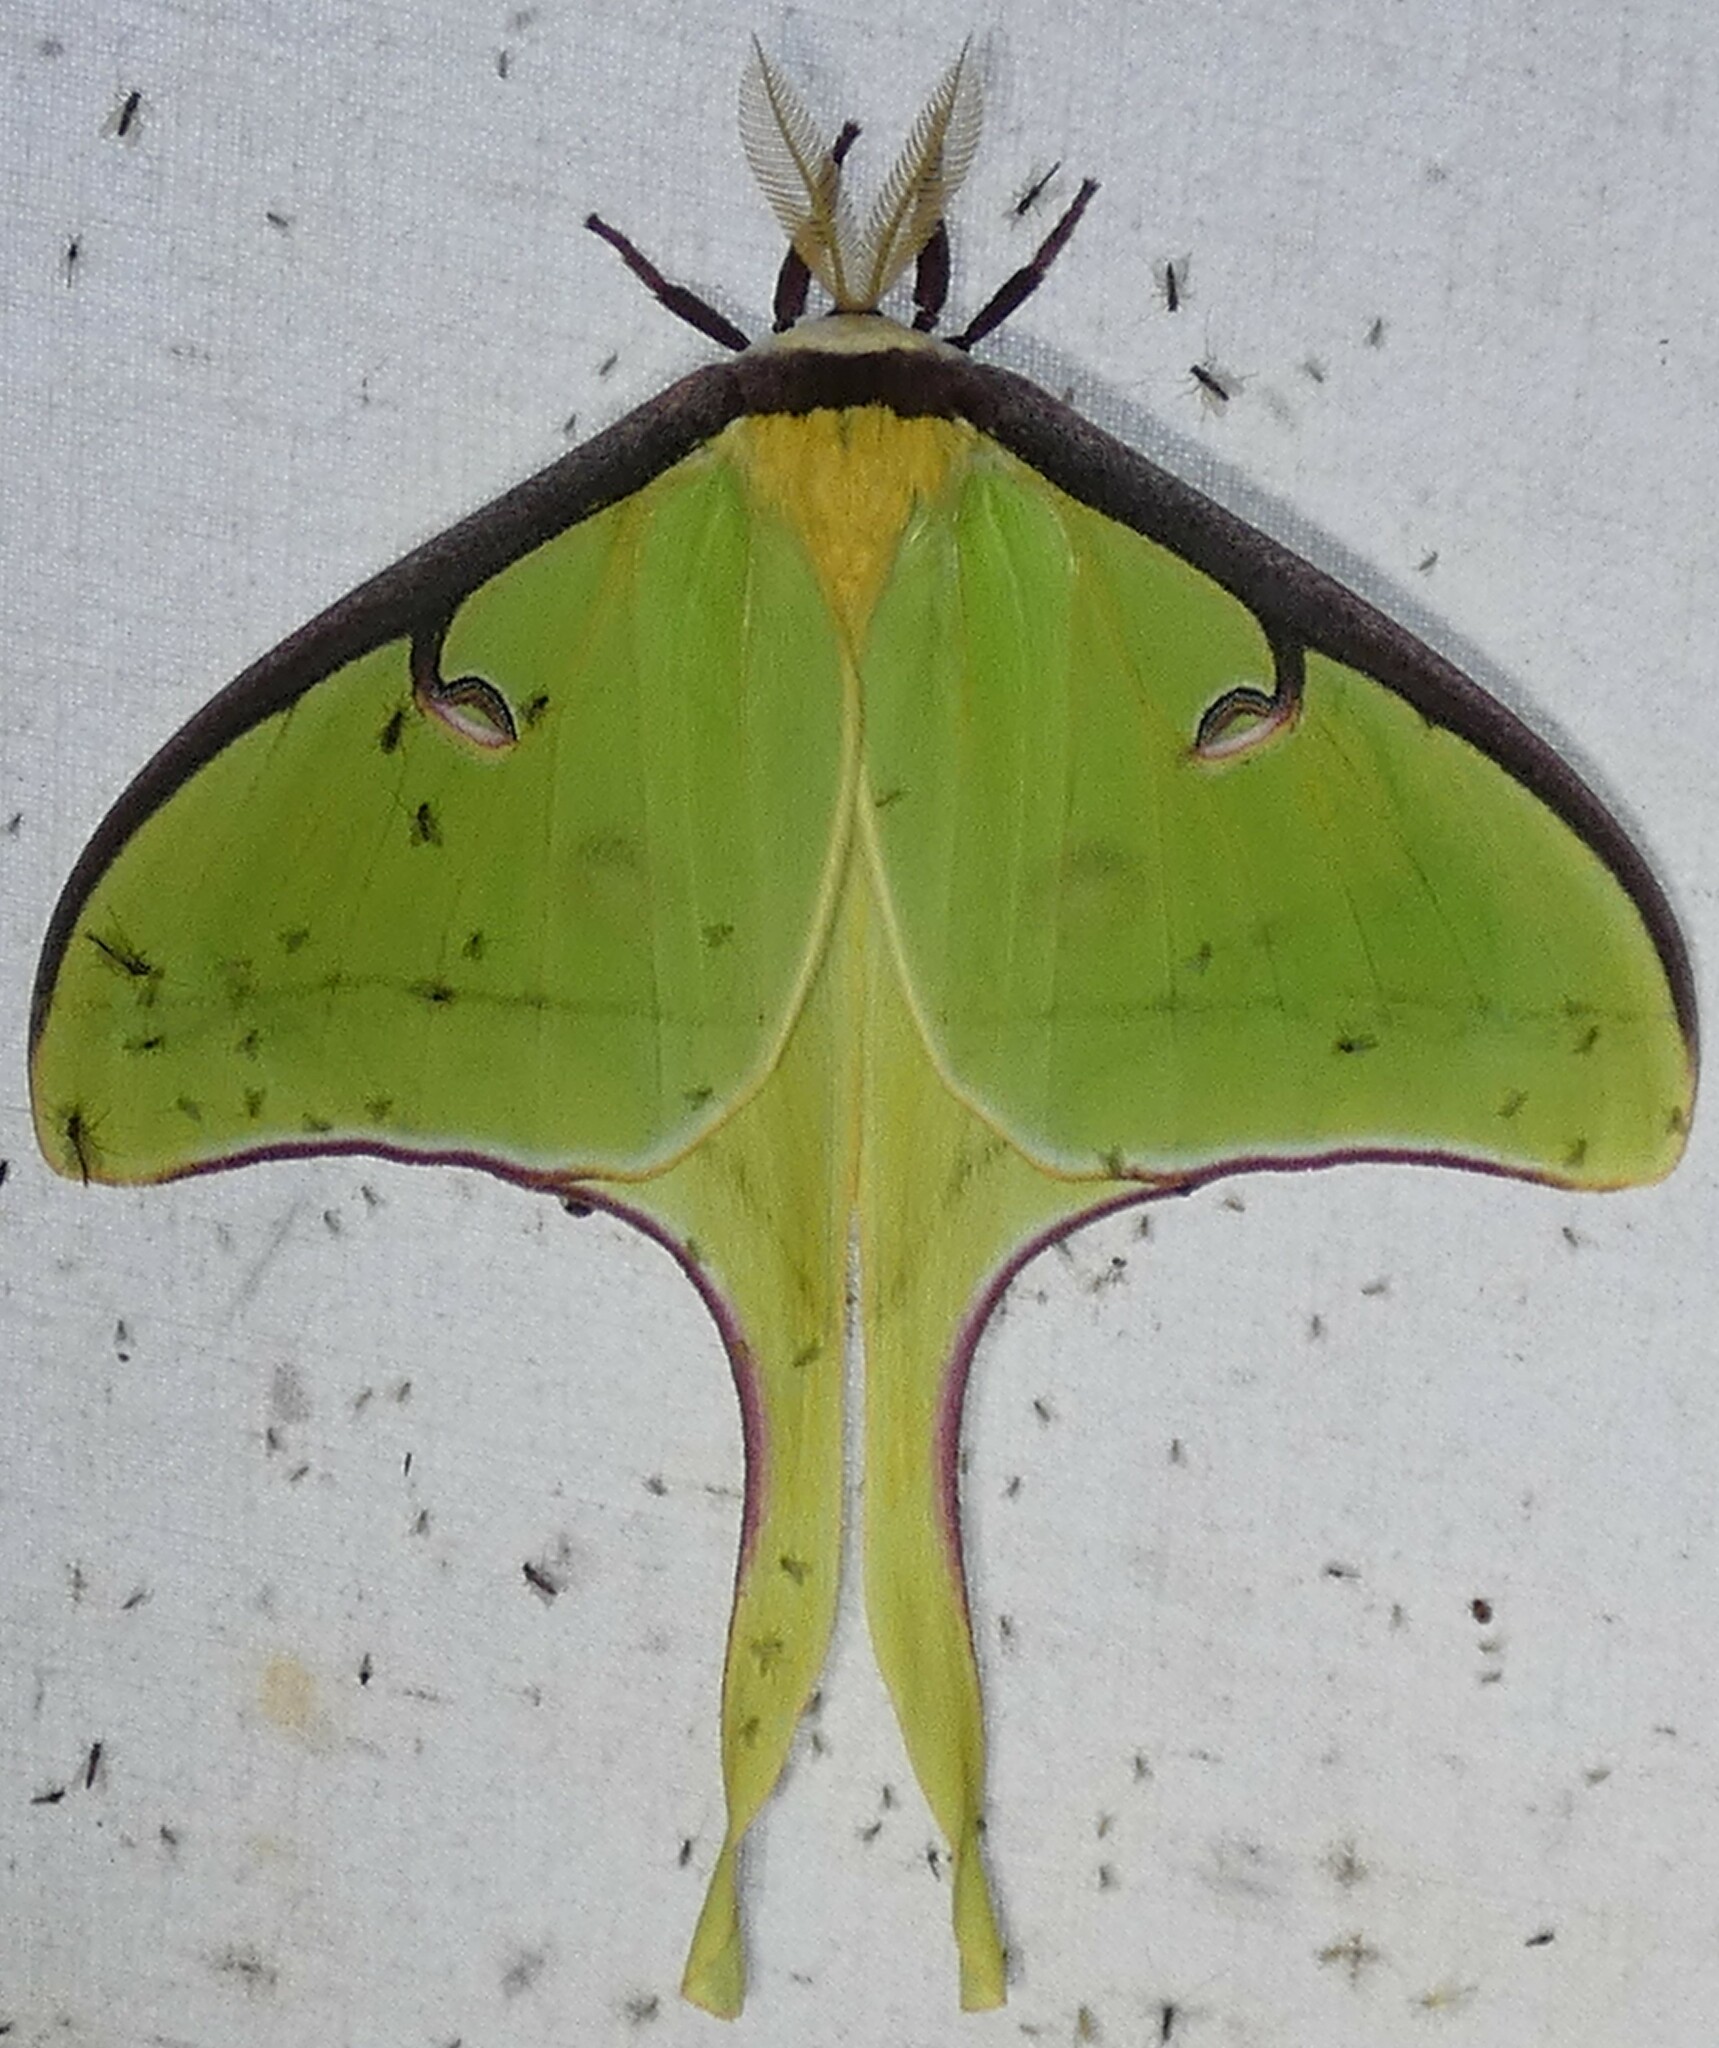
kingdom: Animalia
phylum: Arthropoda
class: Insecta
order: Lepidoptera
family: Saturniidae
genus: Actias
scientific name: Actias luna
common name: Luna moth
